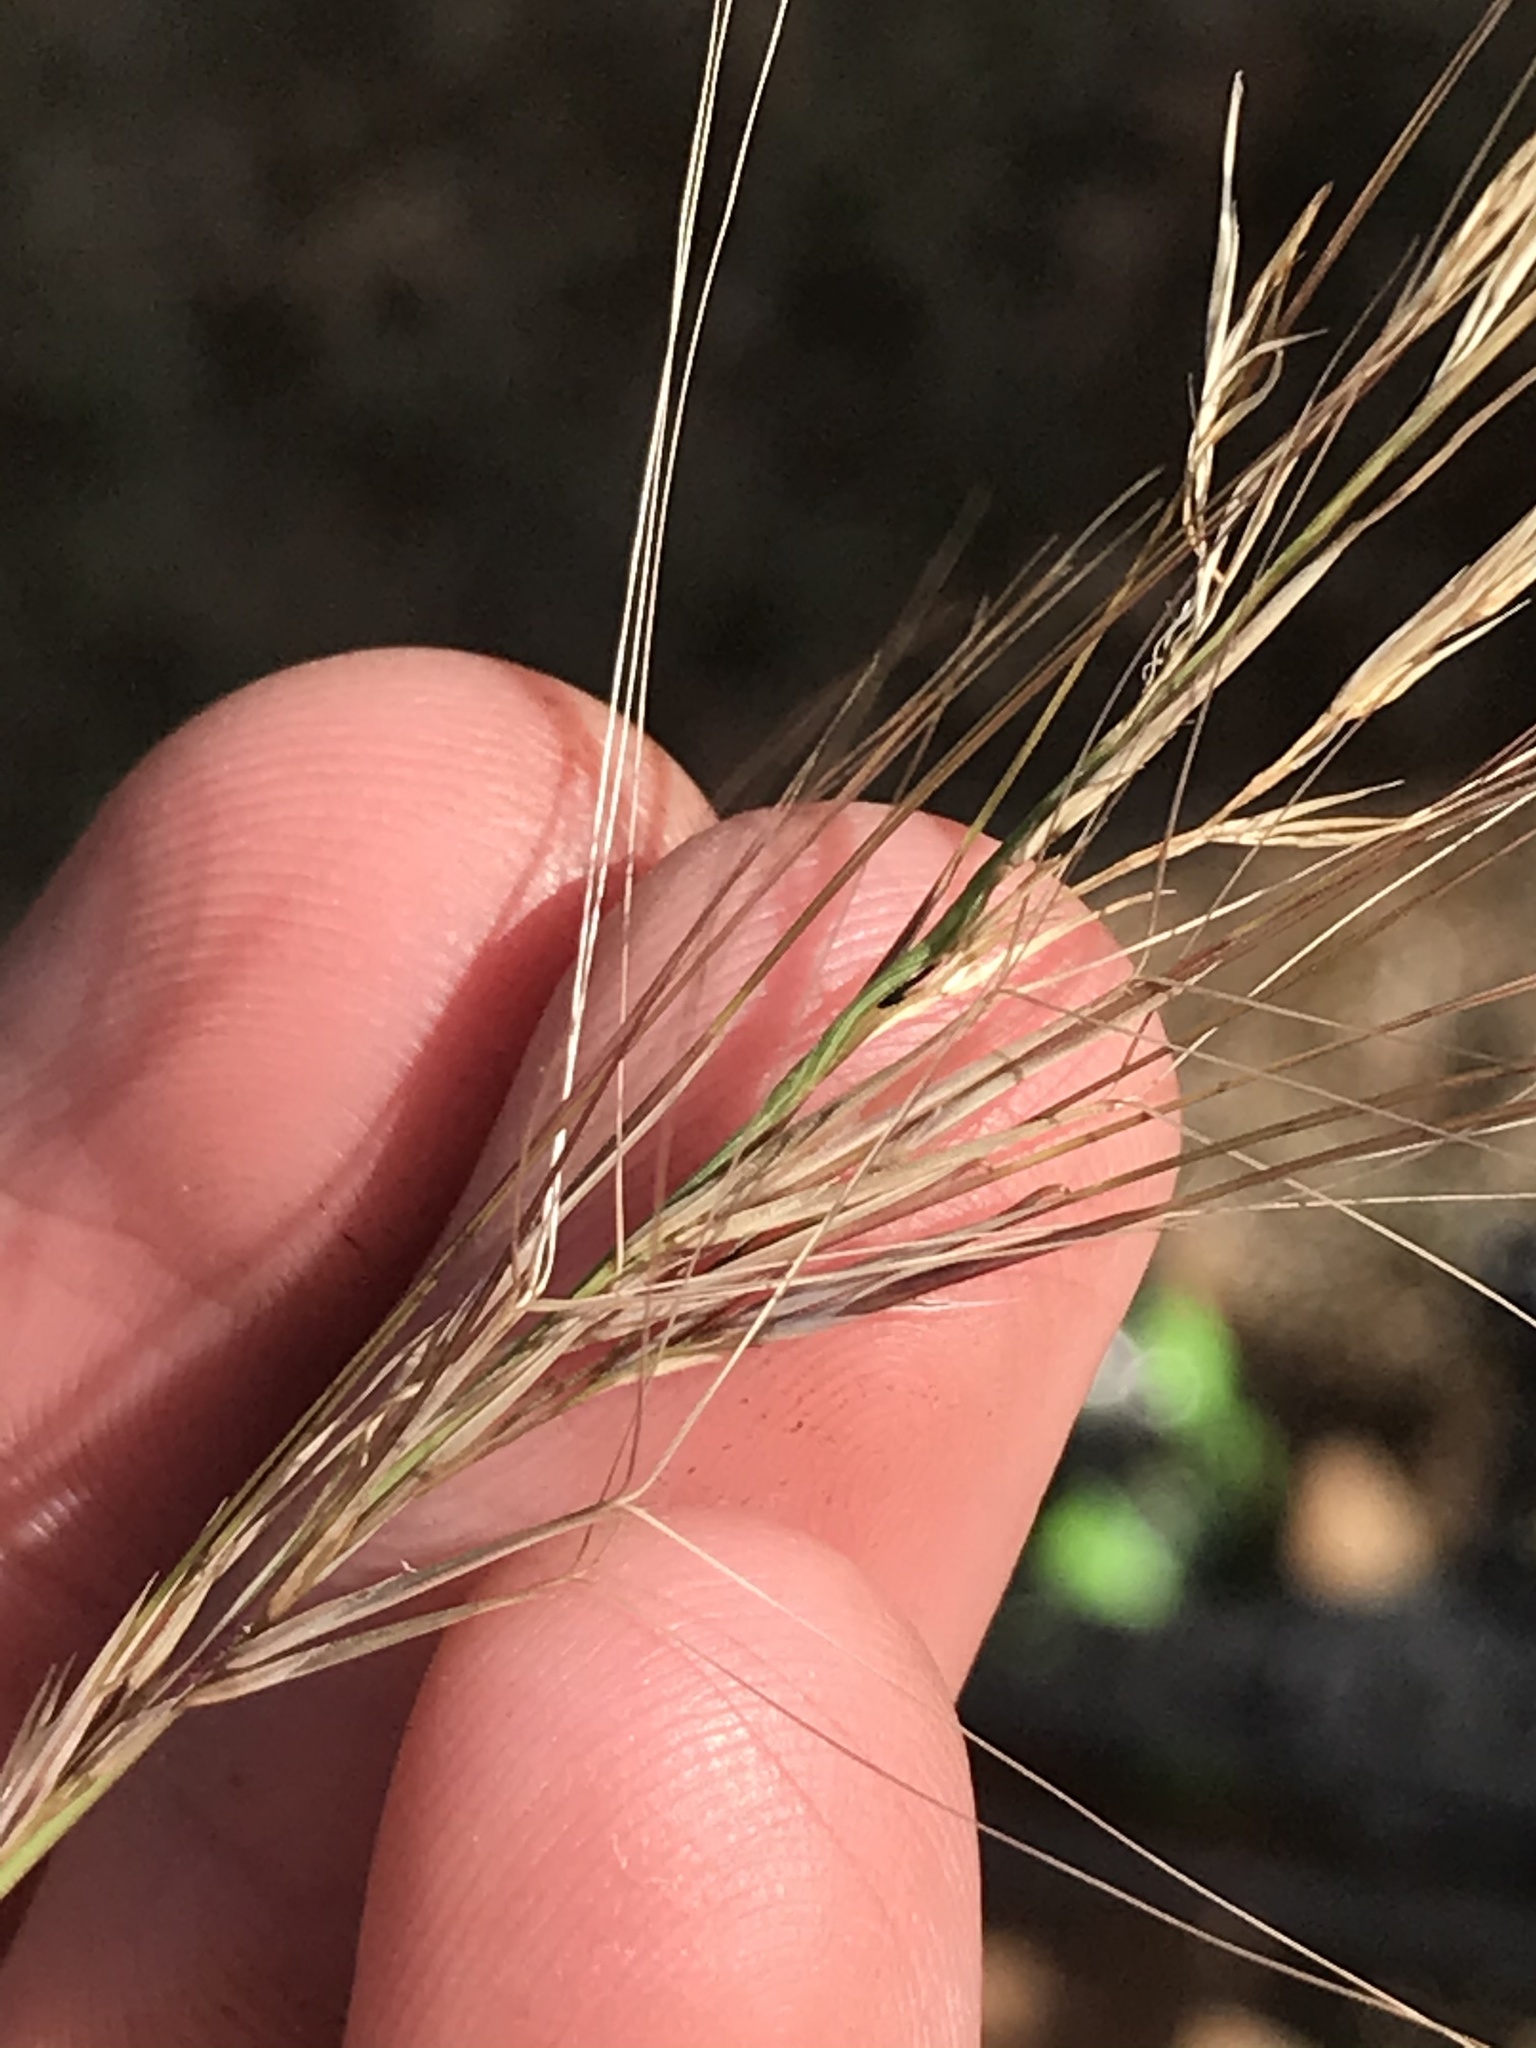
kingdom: Plantae
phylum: Tracheophyta
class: Liliopsida
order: Poales
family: Poaceae
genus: Aristida
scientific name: Aristida purpurea
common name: Purple threeawn
